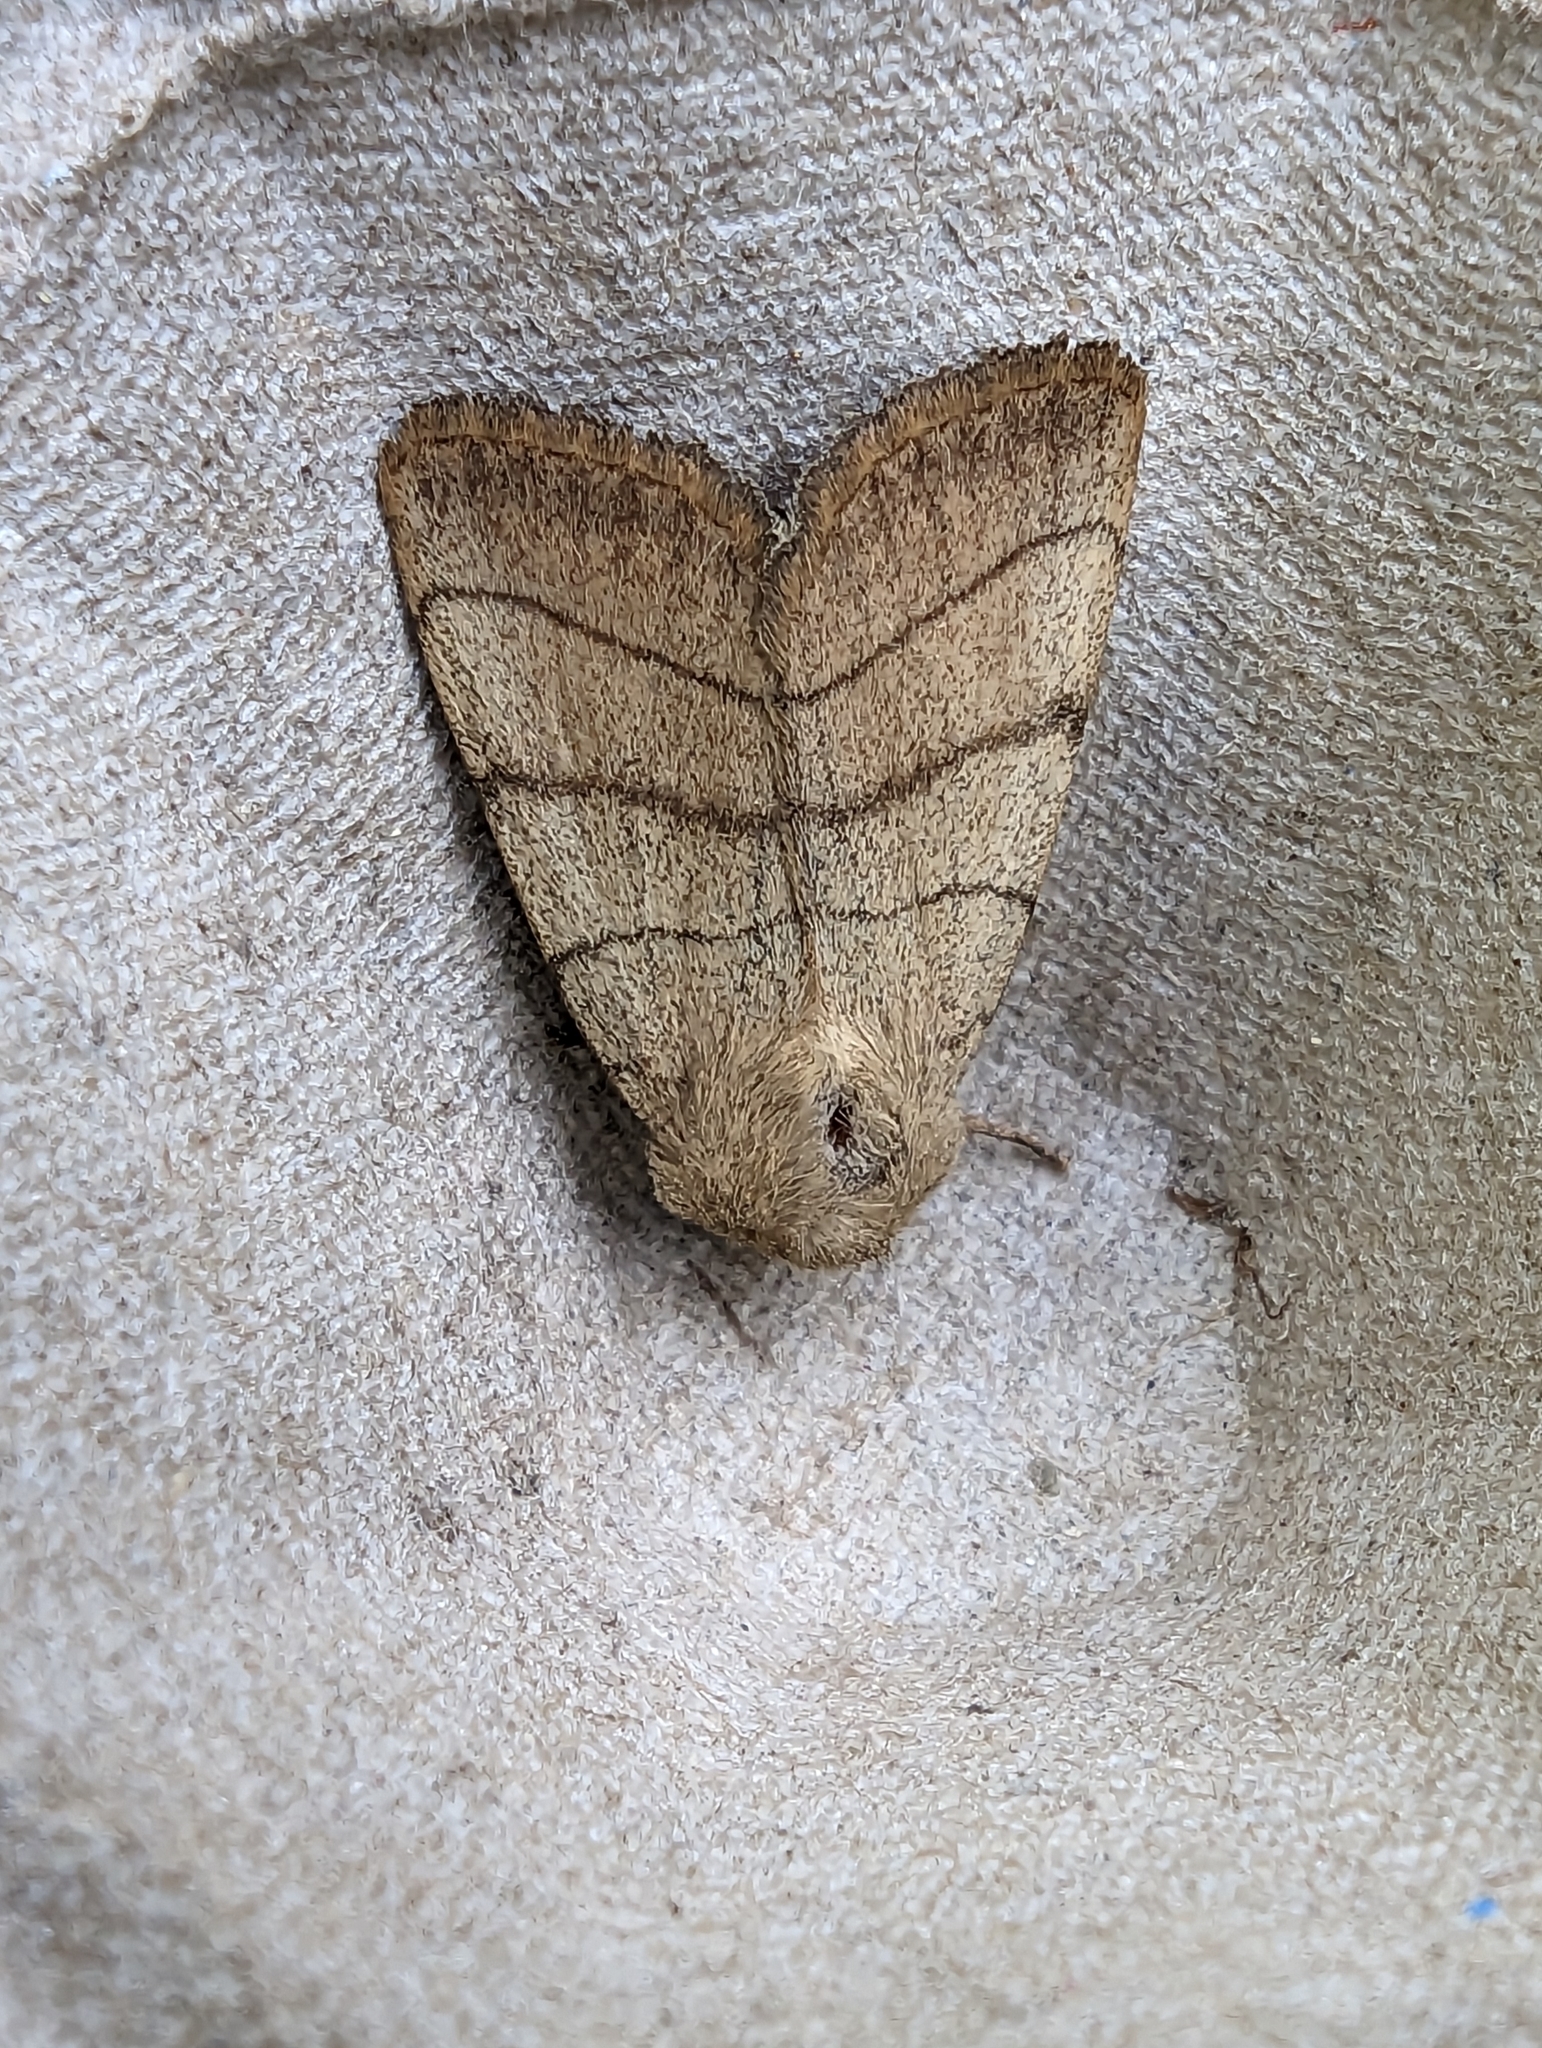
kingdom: Animalia
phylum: Arthropoda
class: Insecta
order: Lepidoptera
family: Noctuidae
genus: Charanyca
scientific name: Charanyca trigrammica
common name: Treble lines
